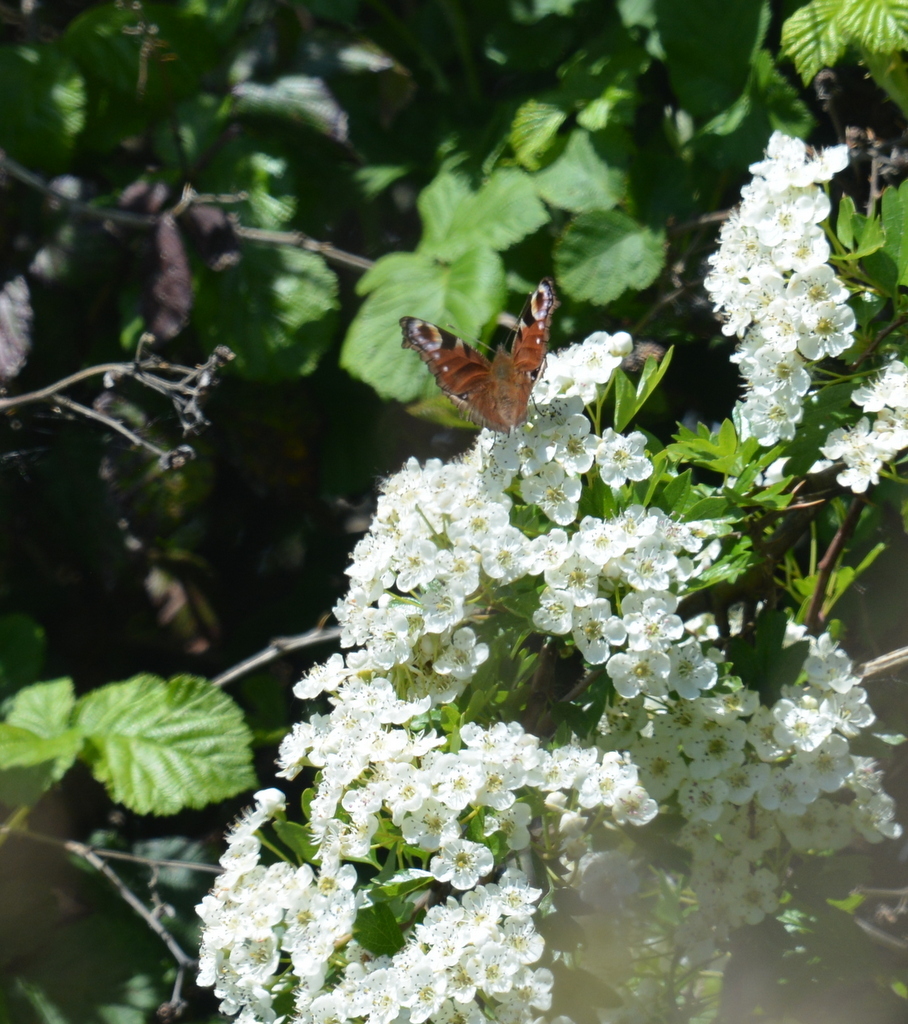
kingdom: Animalia
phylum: Arthropoda
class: Insecta
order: Lepidoptera
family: Nymphalidae
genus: Aglais
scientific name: Aglais io
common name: Peacock
